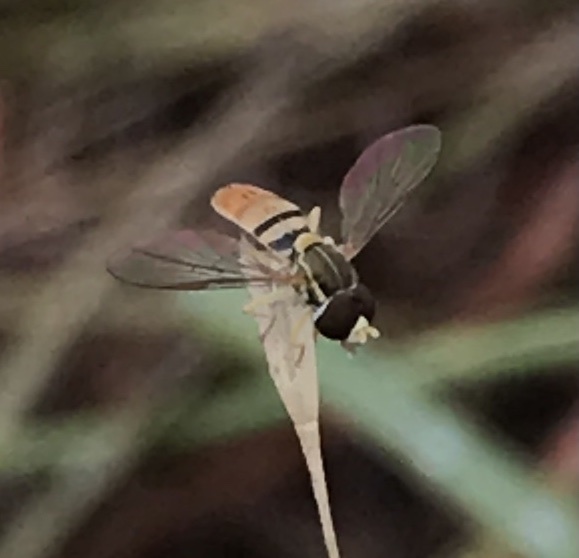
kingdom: Animalia
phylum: Arthropoda
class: Insecta
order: Diptera
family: Syrphidae
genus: Toxomerus
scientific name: Toxomerus marginatus
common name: Syrphid fly
